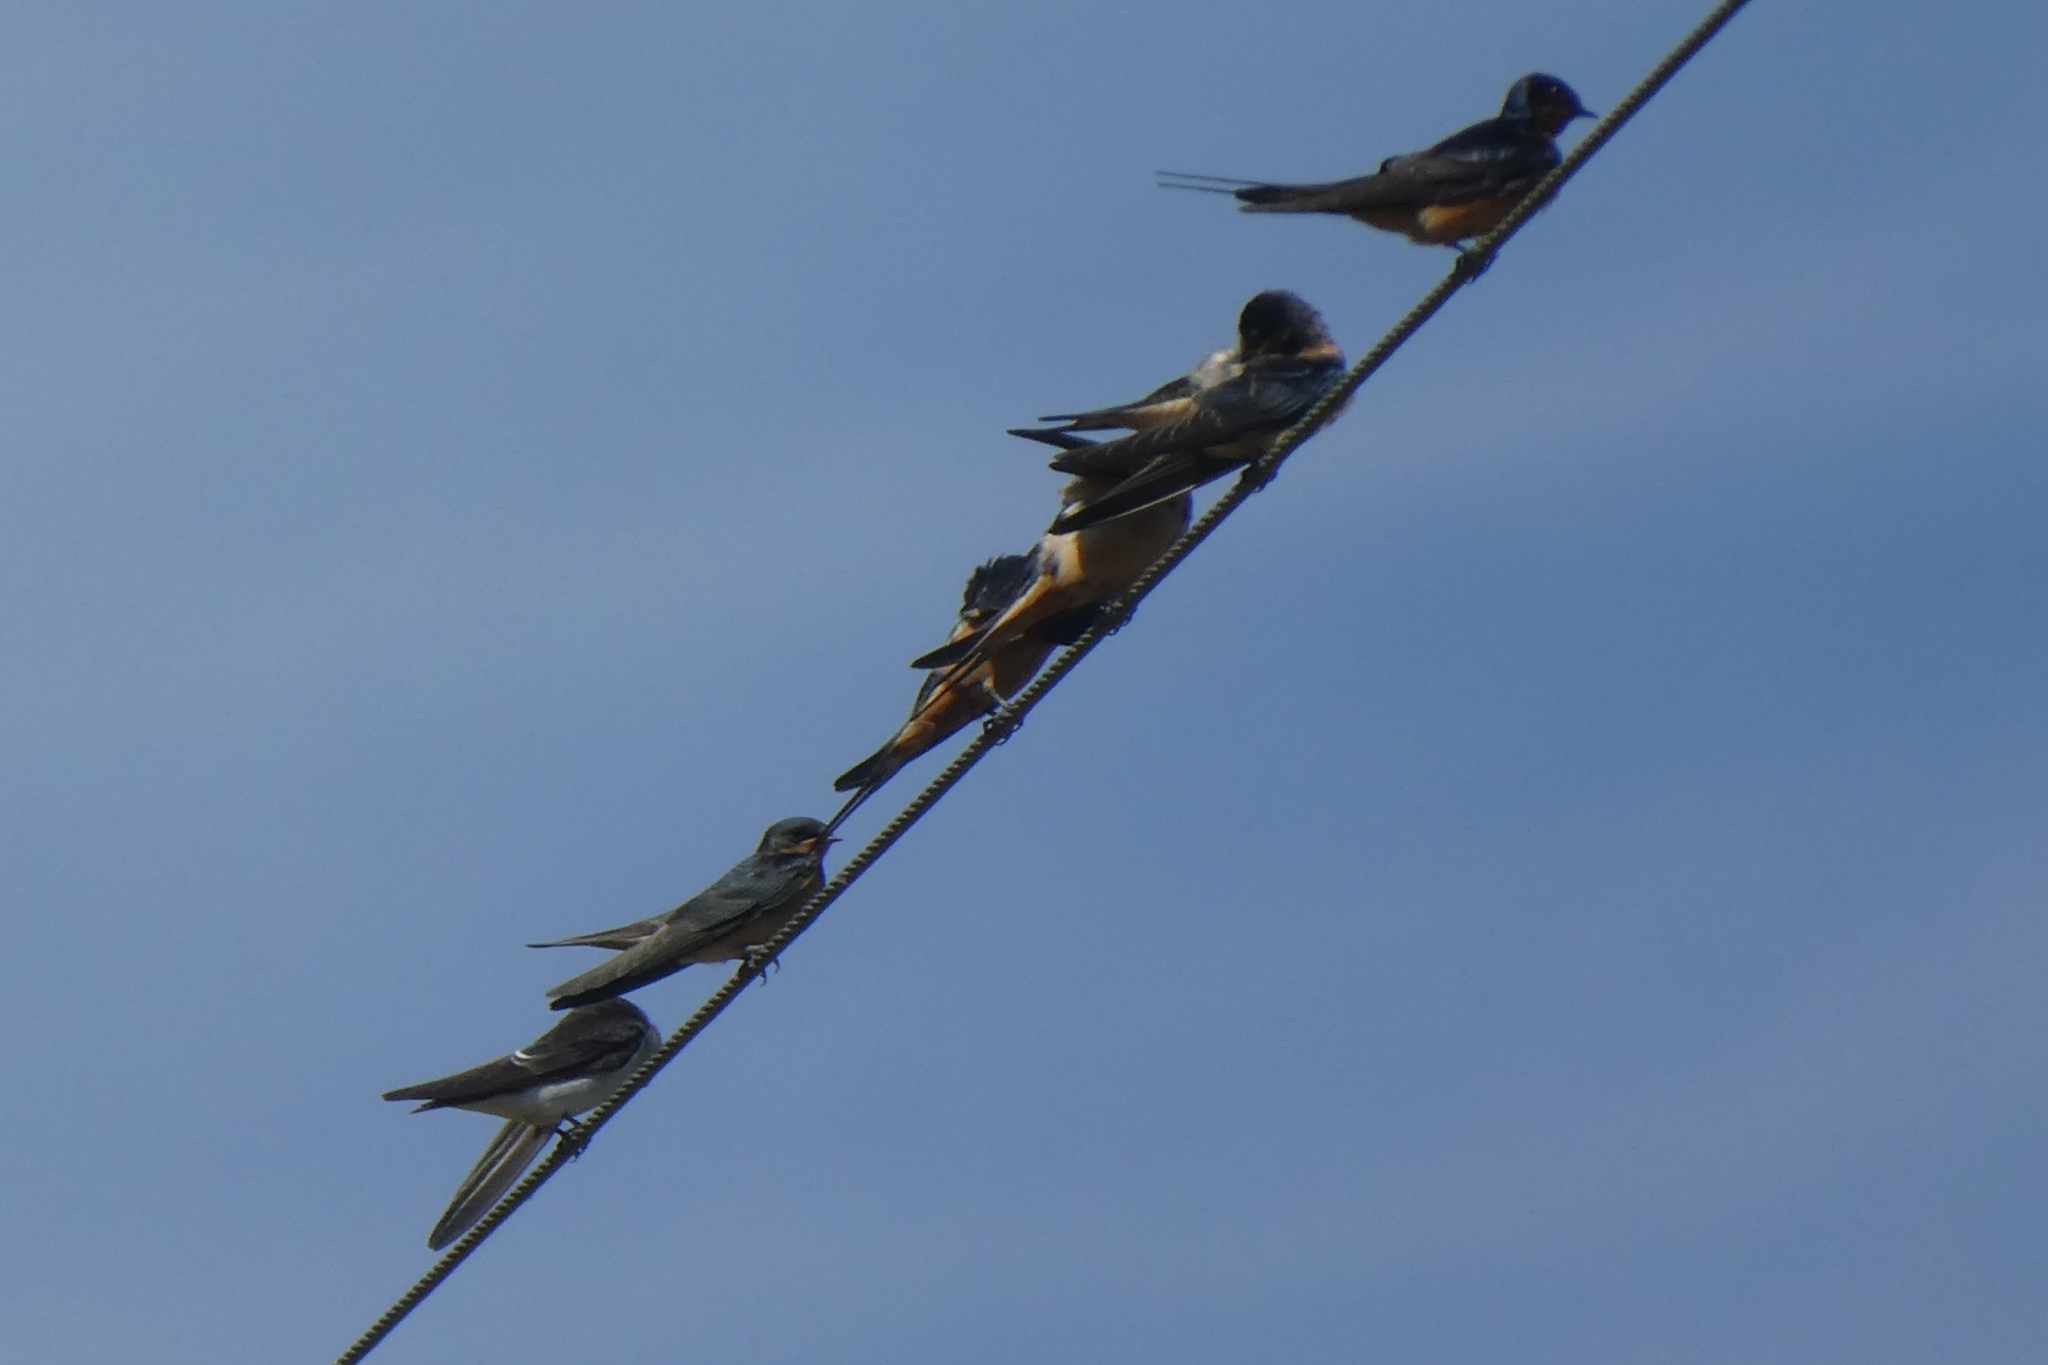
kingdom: Animalia
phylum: Chordata
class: Aves
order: Passeriformes
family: Hirundinidae
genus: Hirundo
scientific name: Hirundo rustica
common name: Barn swallow
